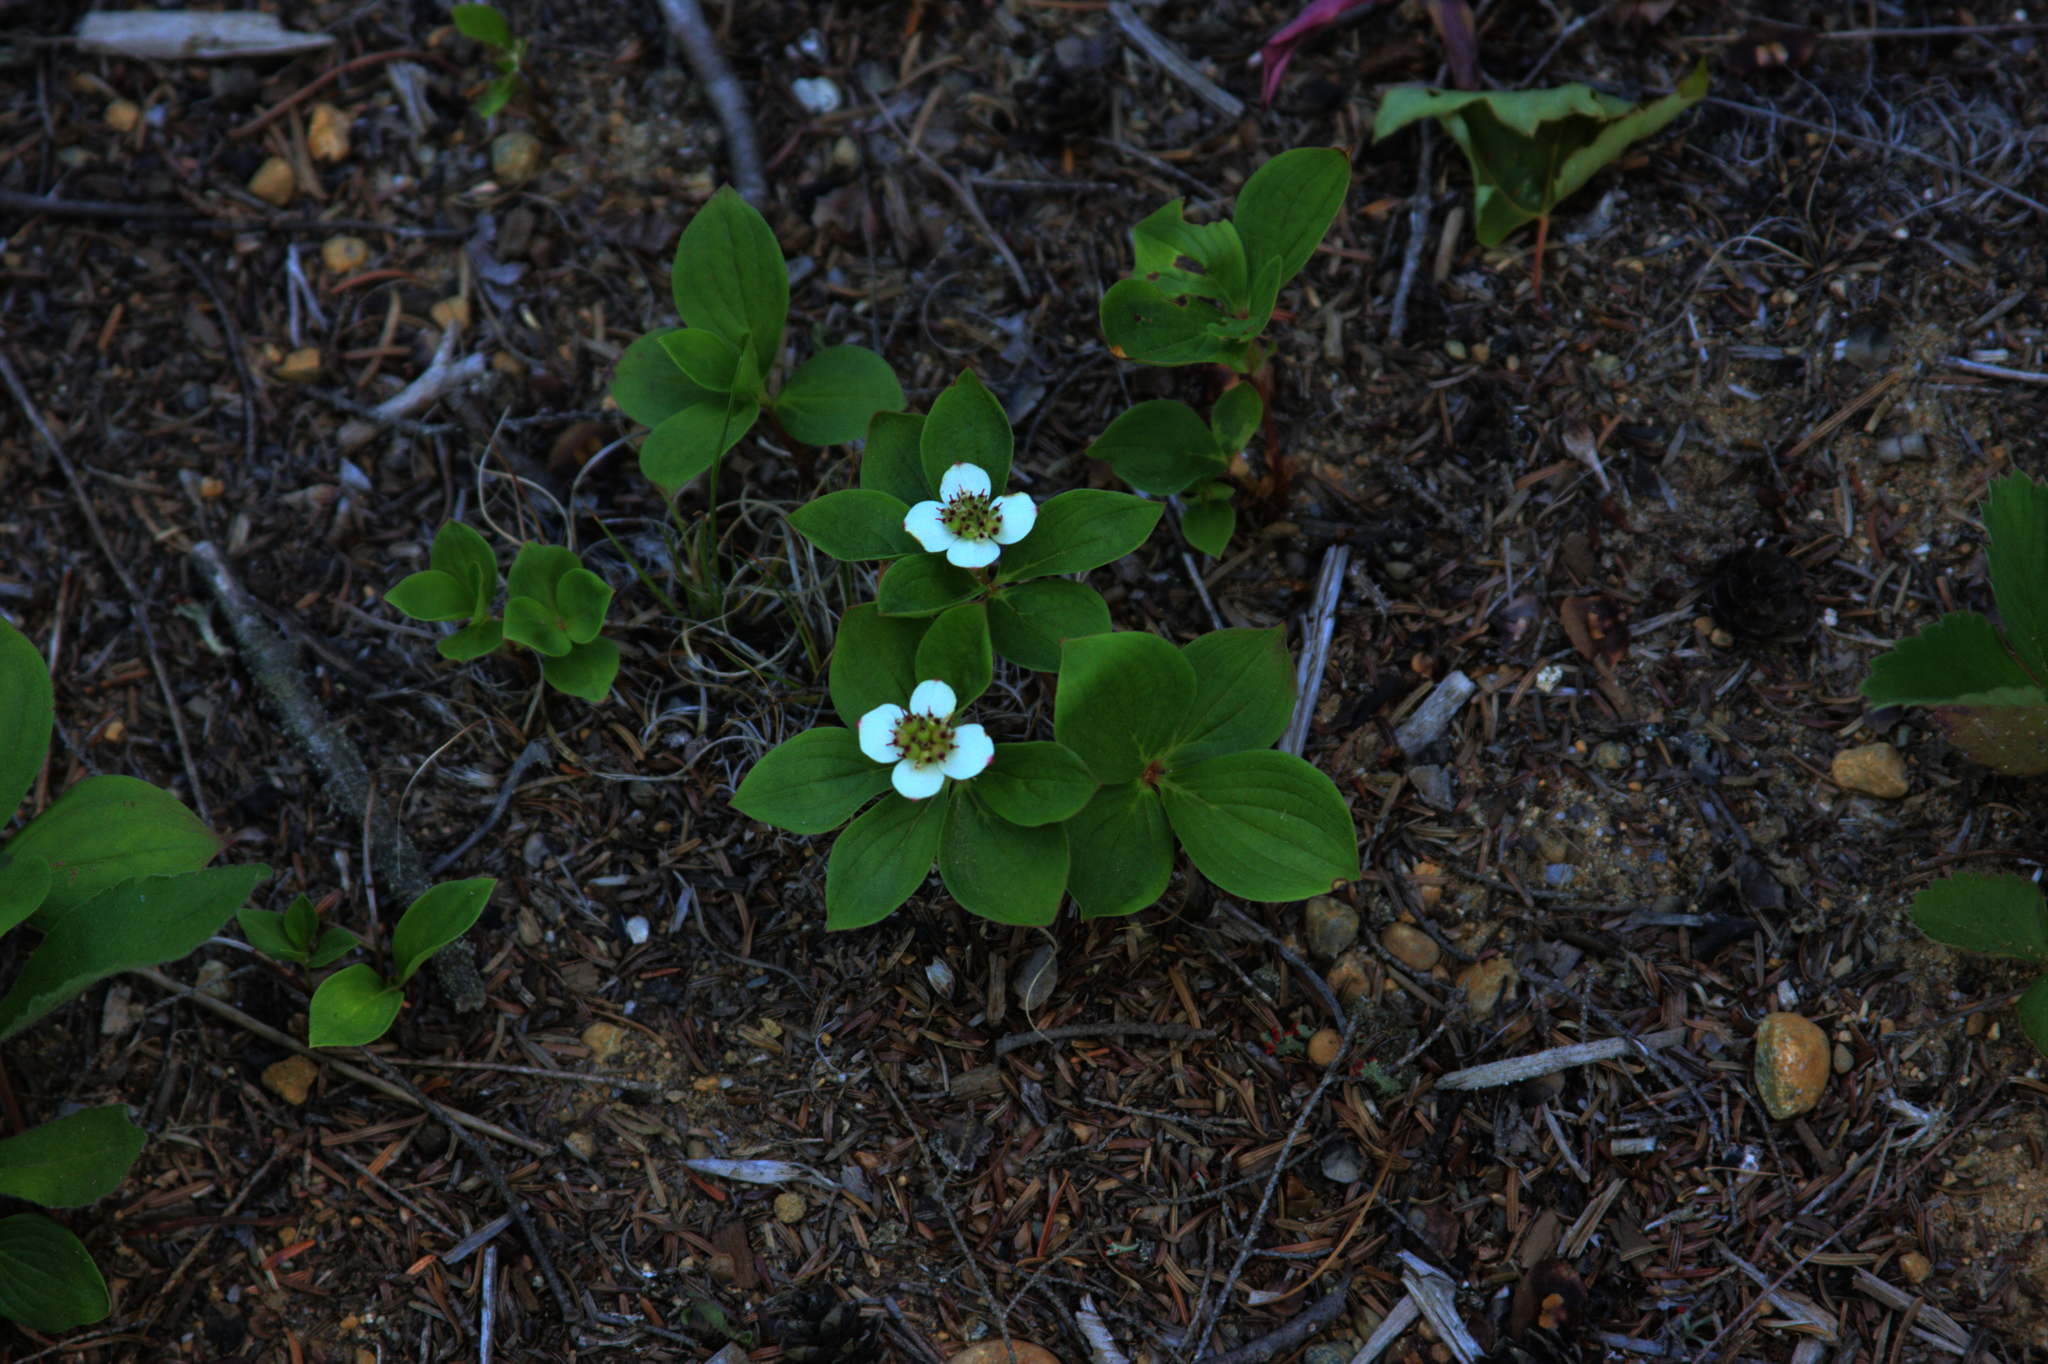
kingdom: Plantae
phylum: Tracheophyta
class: Magnoliopsida
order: Cornales
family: Cornaceae
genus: Cornus
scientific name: Cornus canadensis
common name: Creeping dogwood
